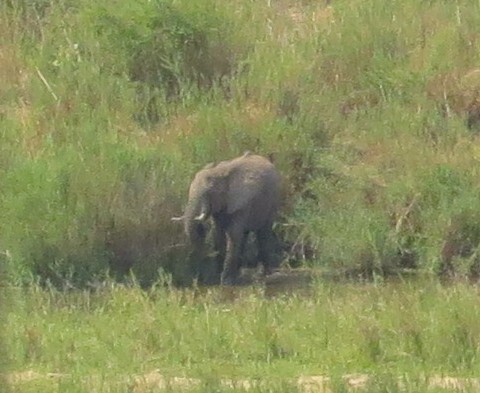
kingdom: Animalia
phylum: Chordata
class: Mammalia
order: Proboscidea
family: Elephantidae
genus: Loxodonta
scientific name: Loxodonta africana
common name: African elephant
